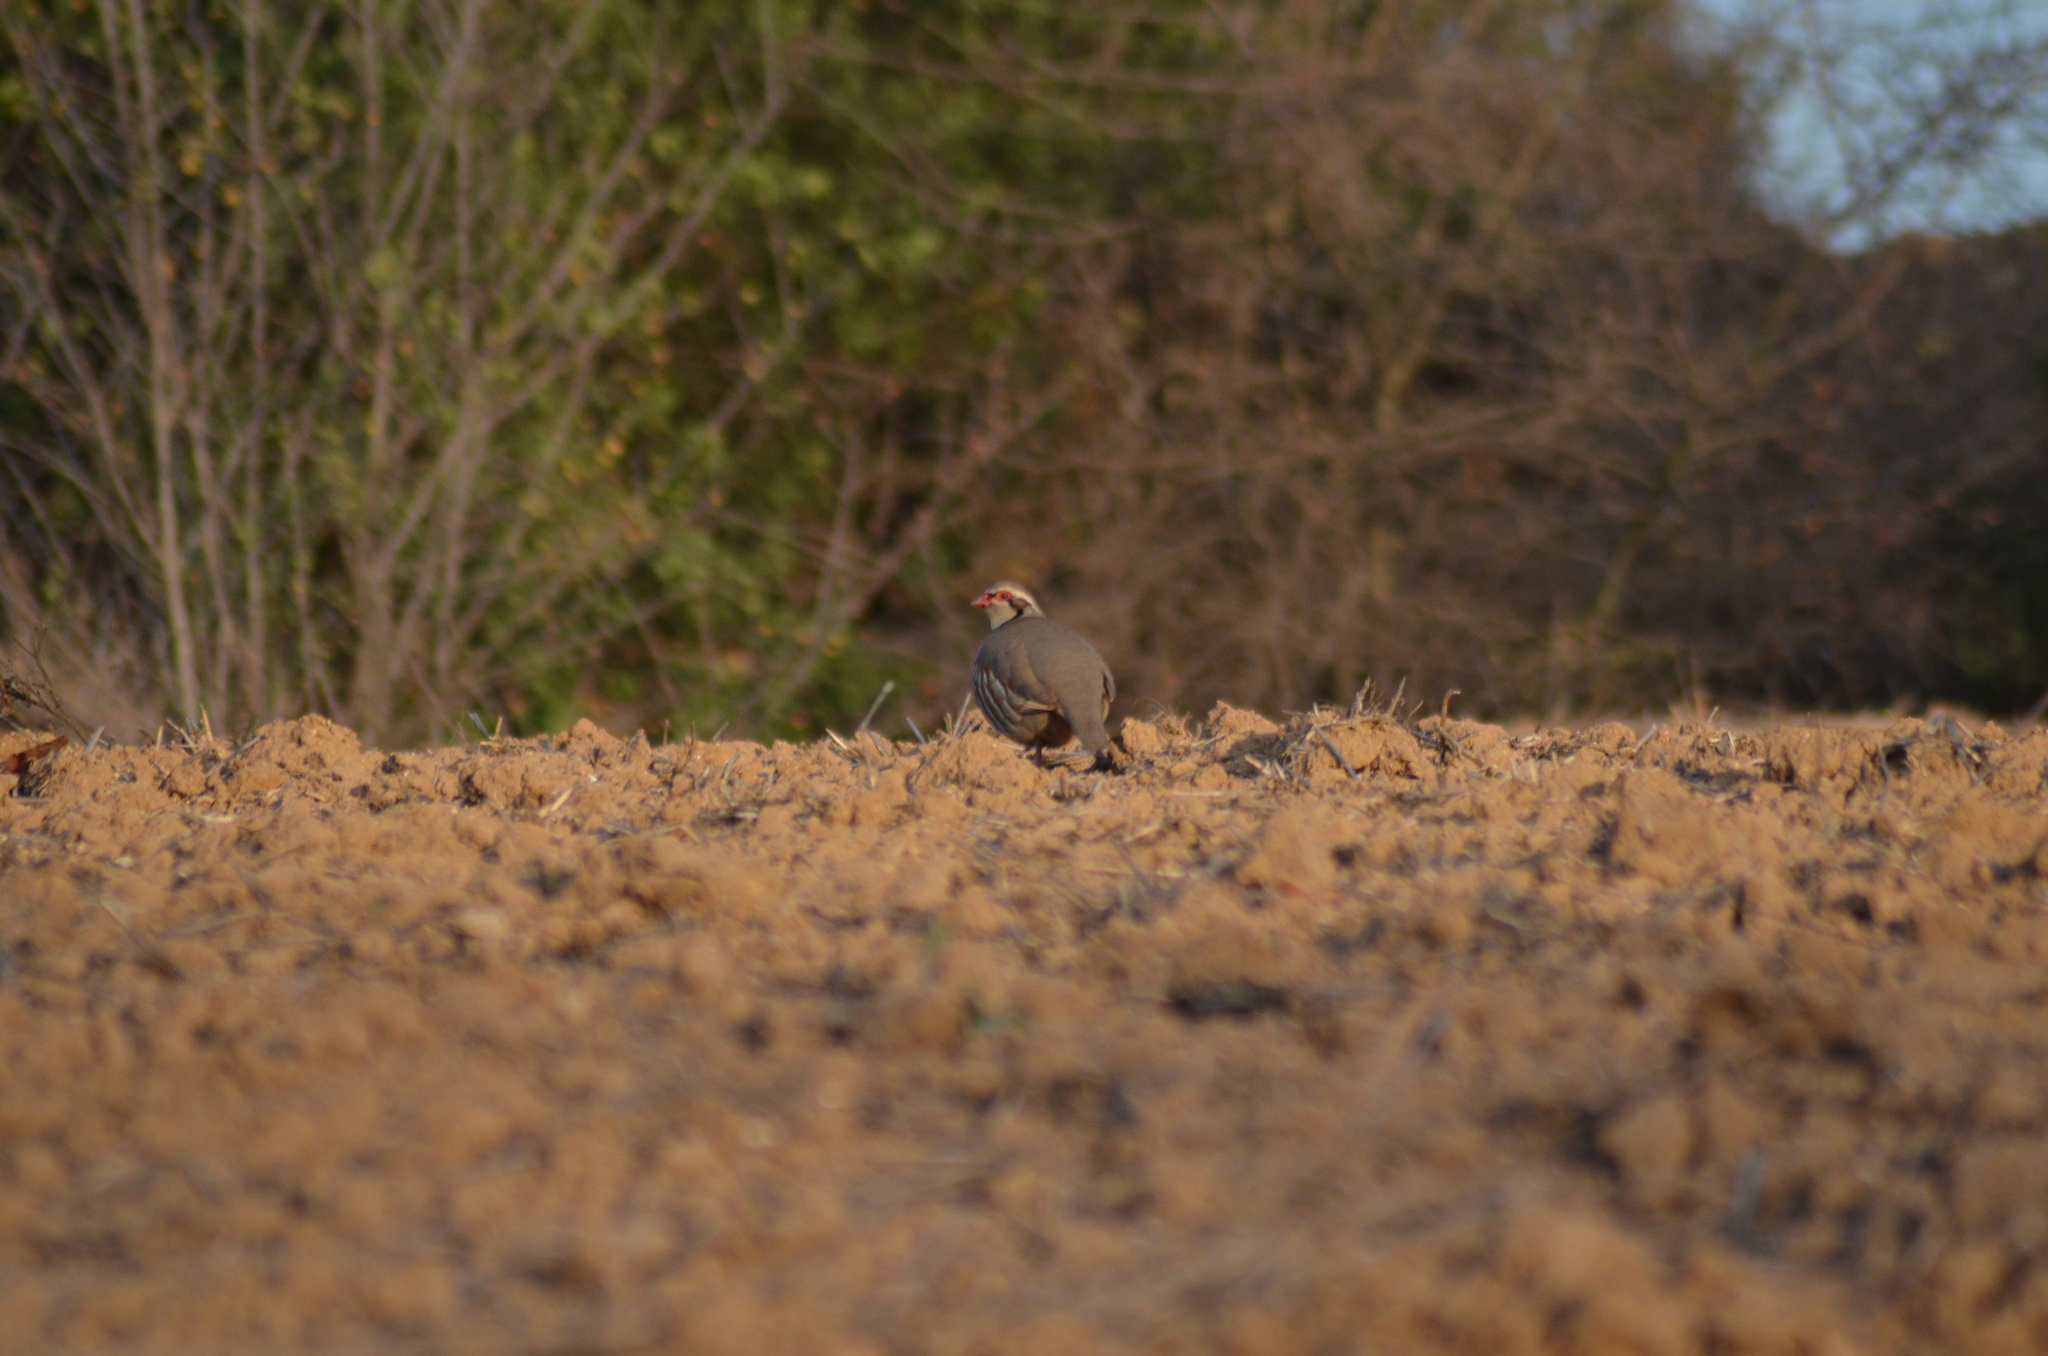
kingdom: Animalia
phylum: Chordata
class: Aves
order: Galliformes
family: Phasianidae
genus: Alectoris
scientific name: Alectoris rufa
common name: Red-legged partridge
